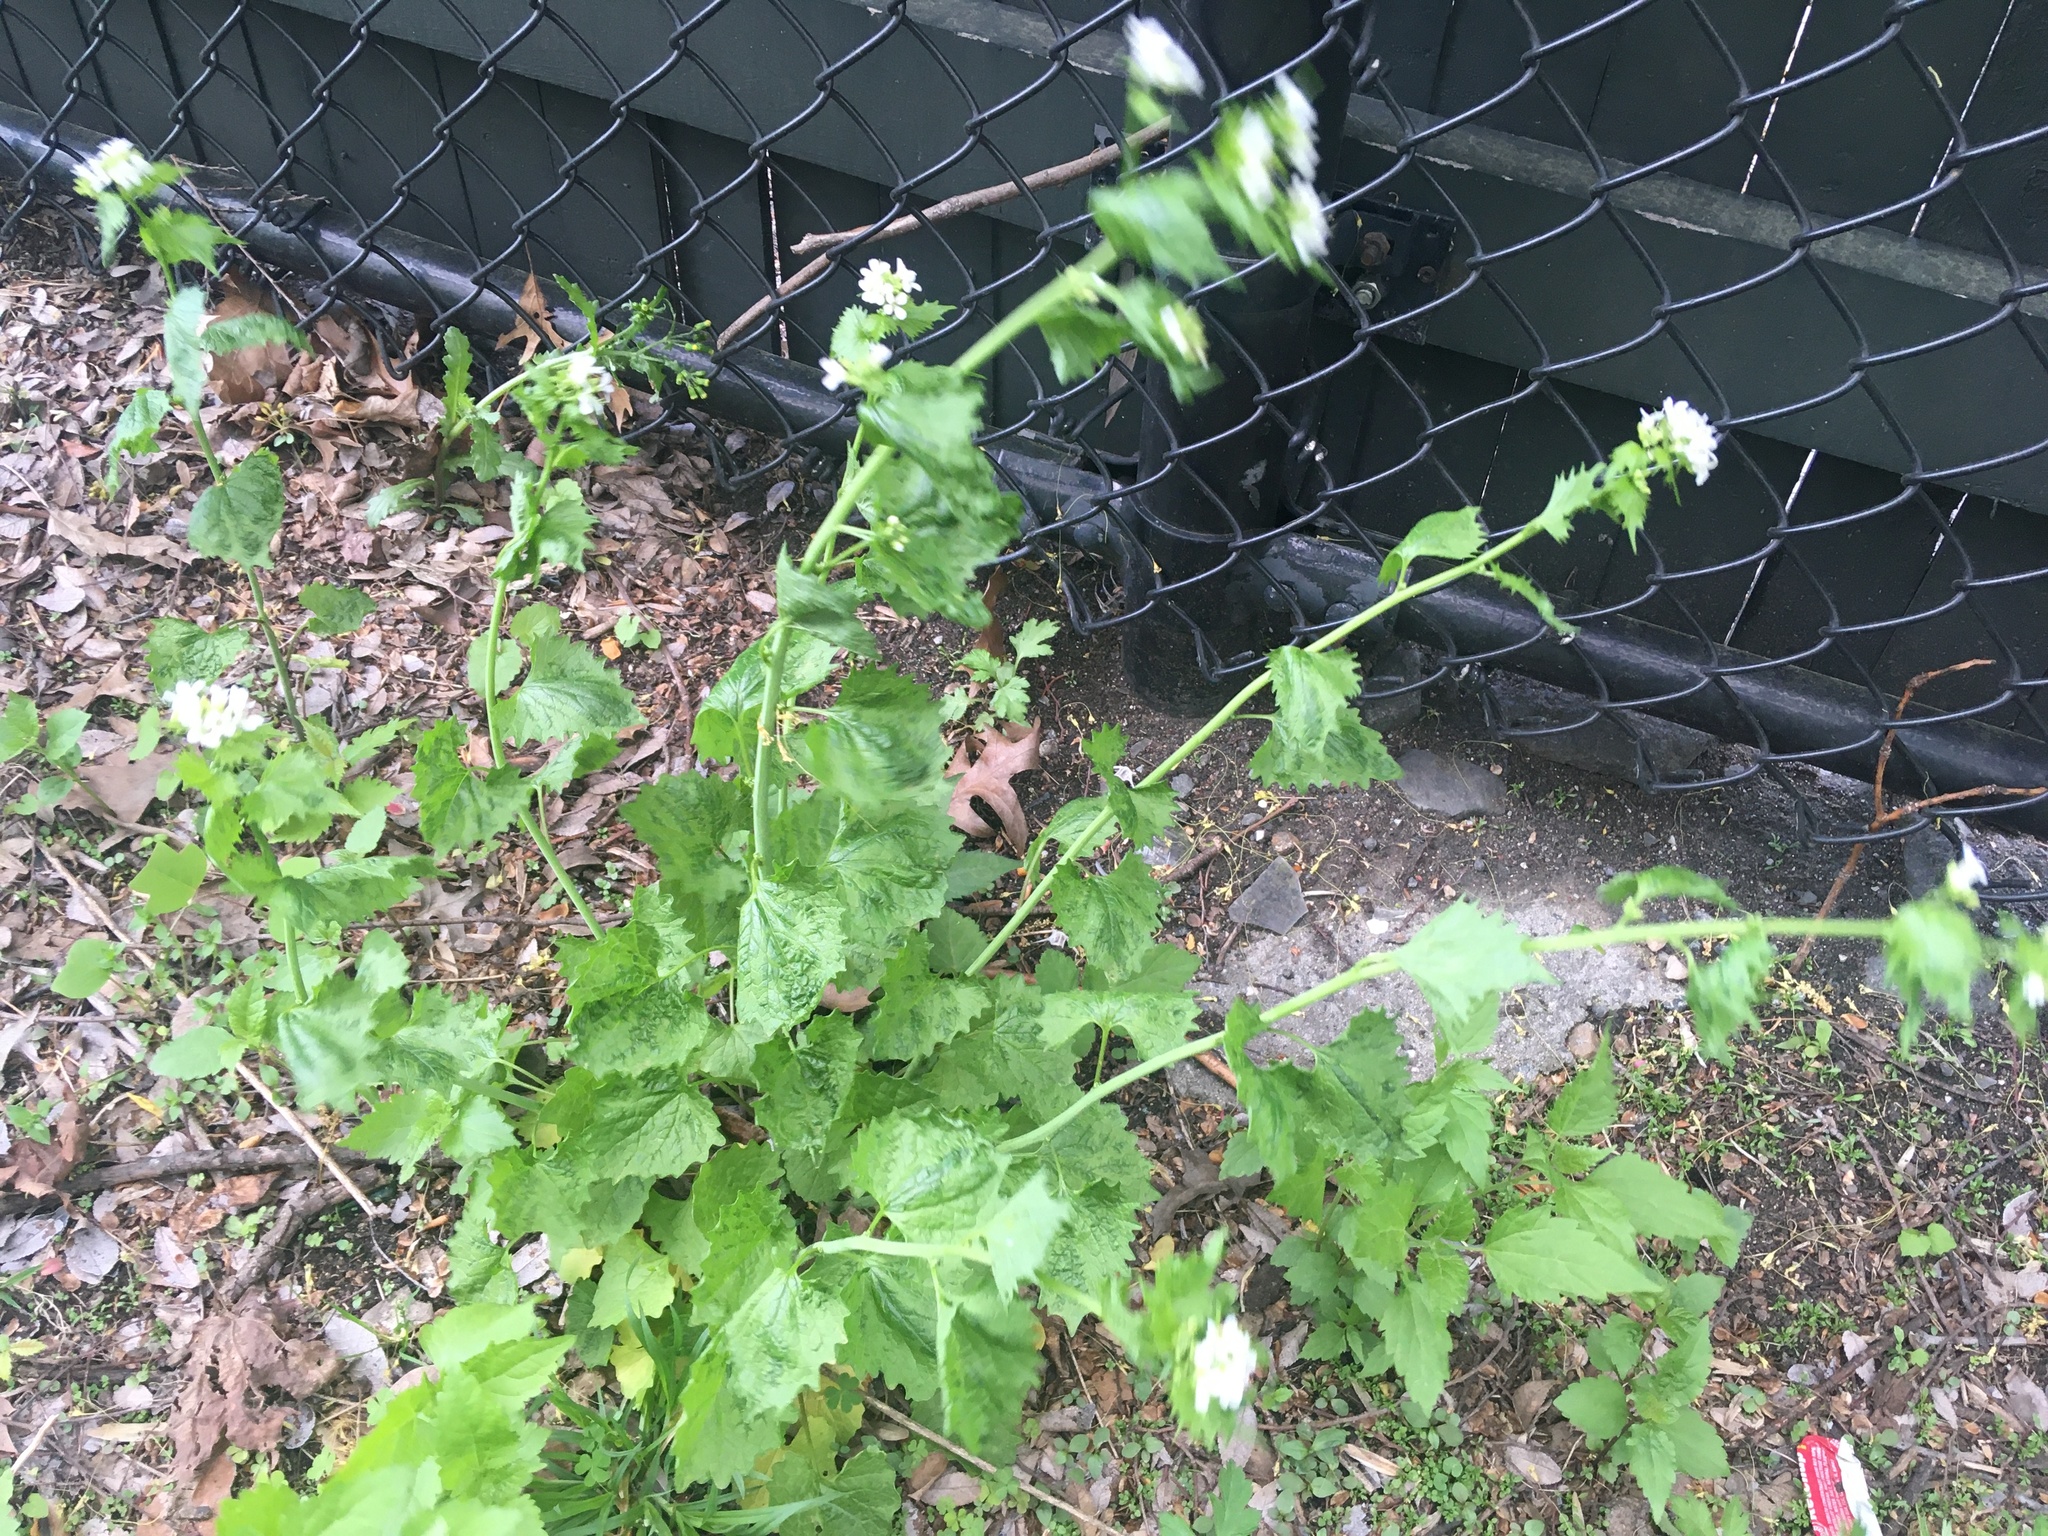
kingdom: Plantae
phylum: Tracheophyta
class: Magnoliopsida
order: Brassicales
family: Brassicaceae
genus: Alliaria
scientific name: Alliaria petiolata
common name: Garlic mustard
